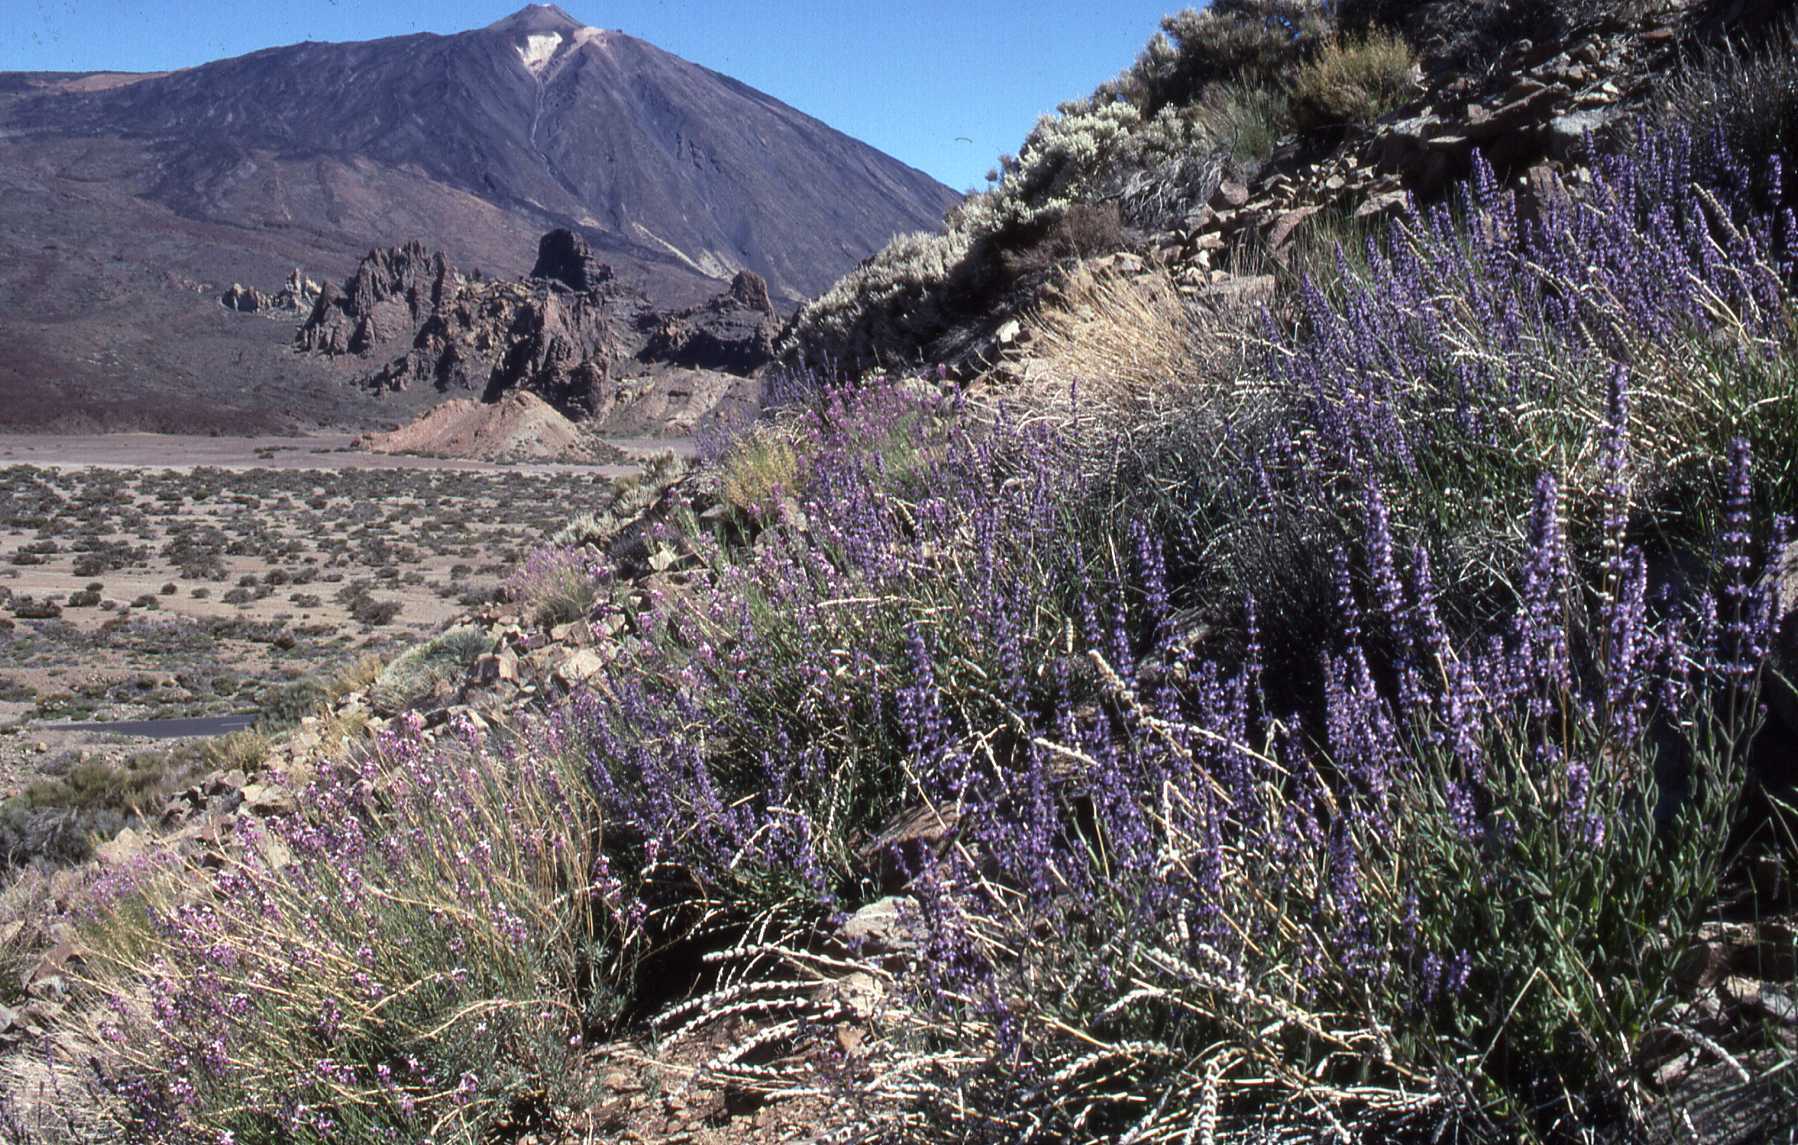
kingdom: Plantae
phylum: Tracheophyta
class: Magnoliopsida
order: Lamiales
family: Lamiaceae
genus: Nepeta
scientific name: Nepeta teydea
